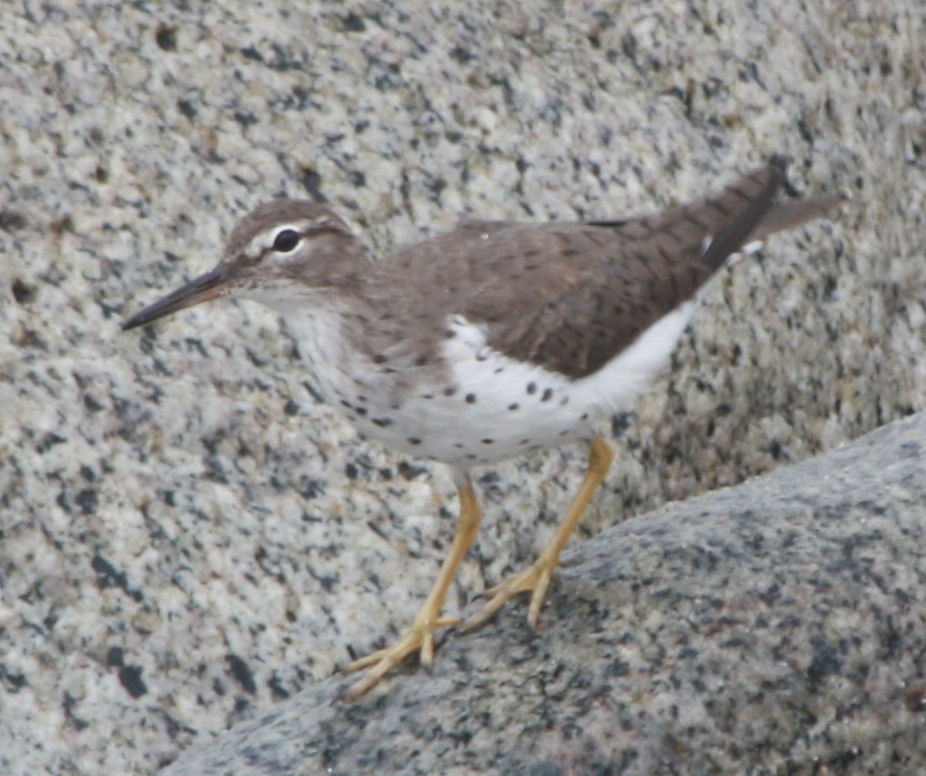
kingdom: Animalia
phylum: Chordata
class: Aves
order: Charadriiformes
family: Scolopacidae
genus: Actitis
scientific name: Actitis macularius
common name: Spotted sandpiper
